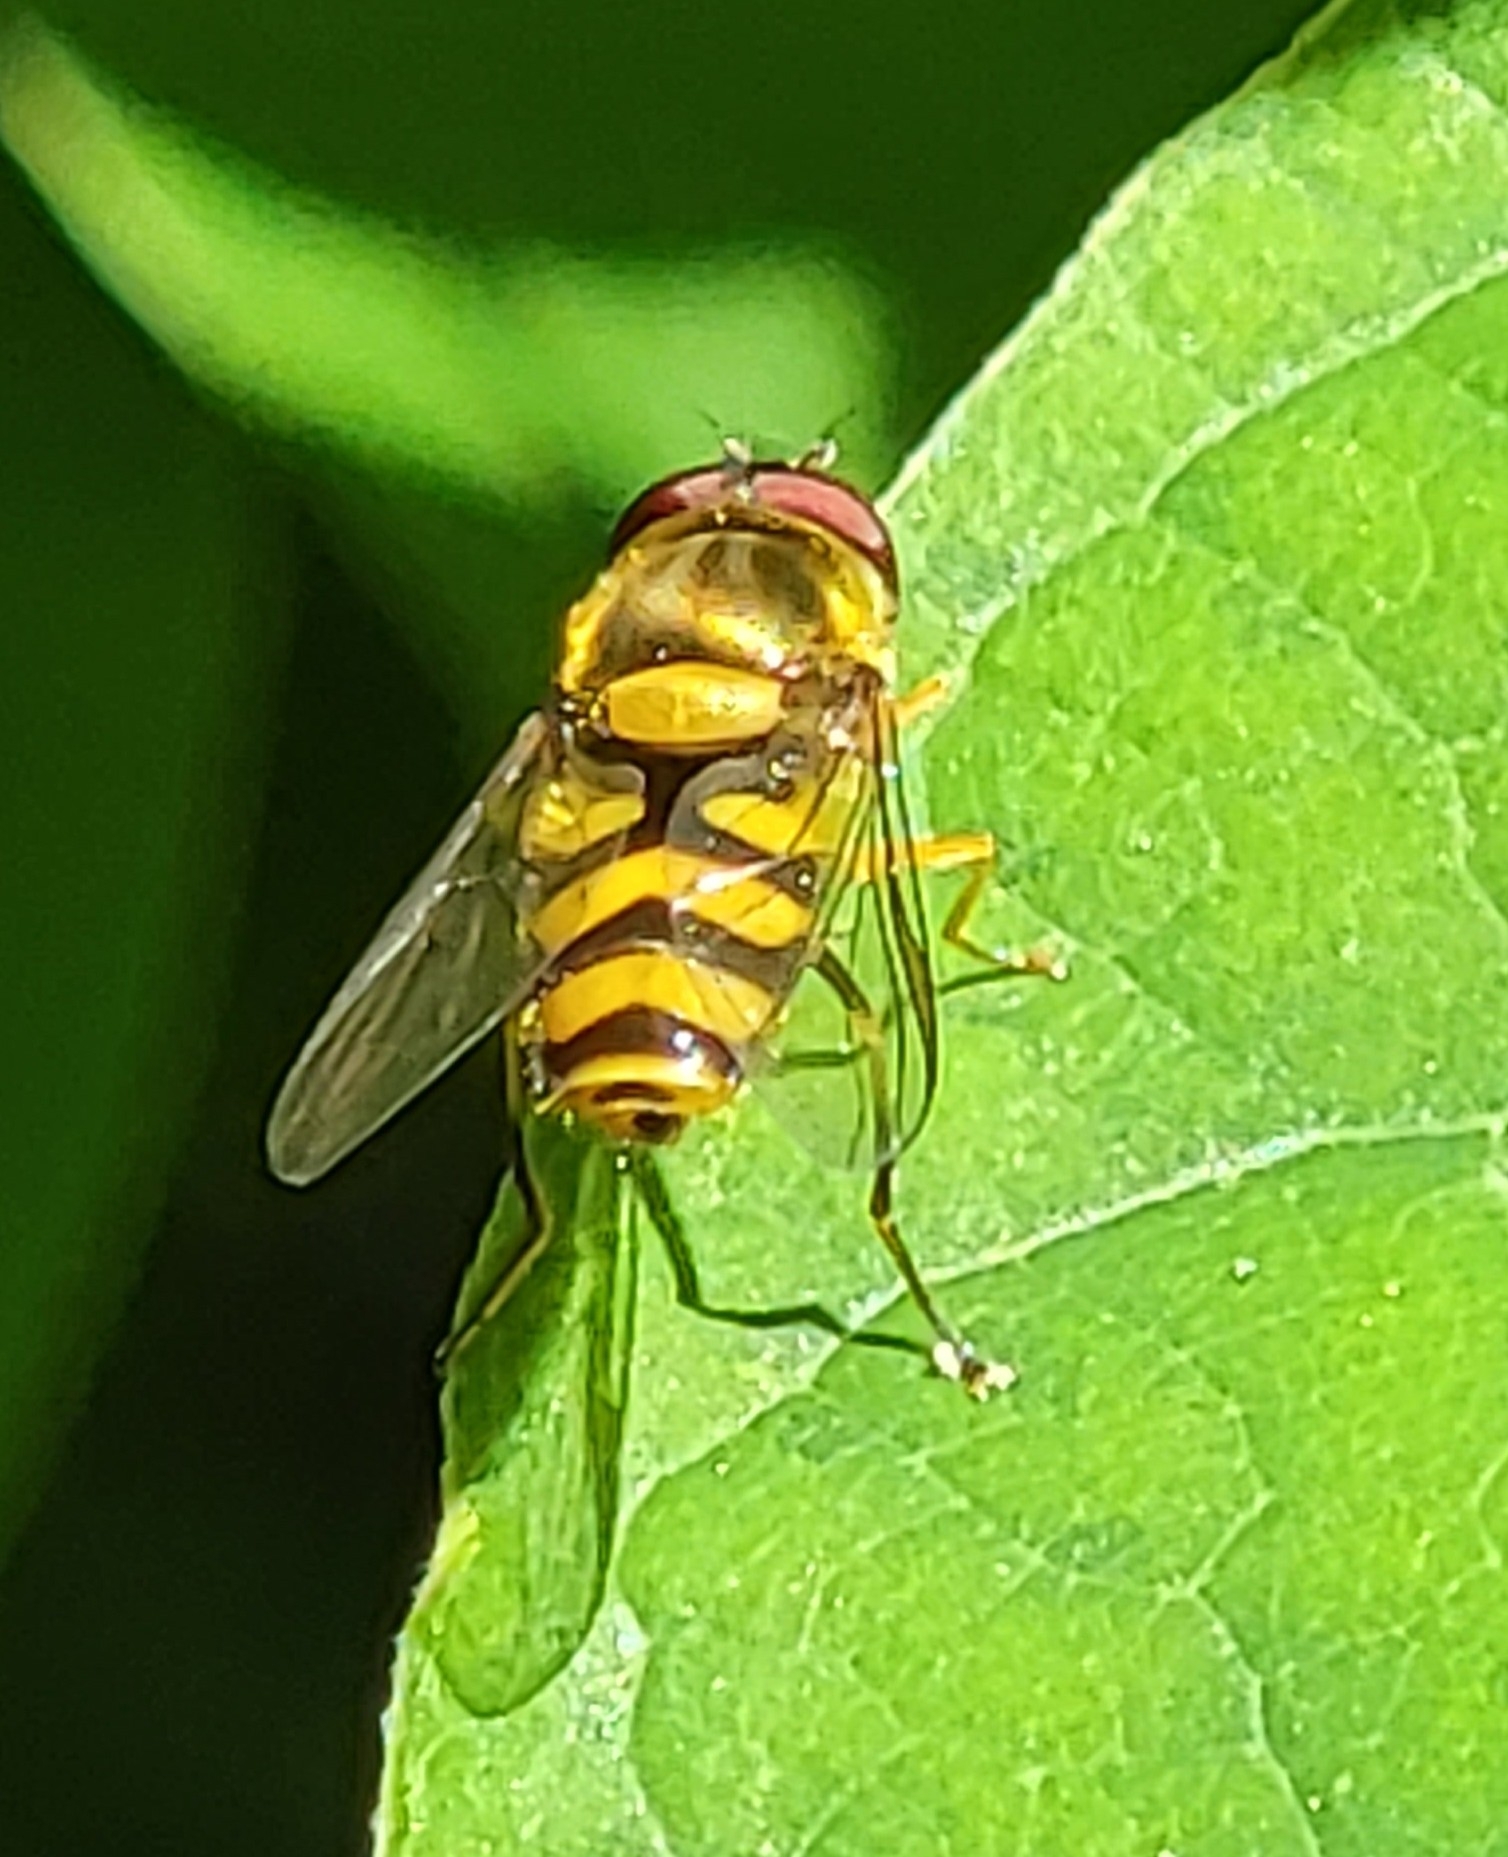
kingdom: Animalia
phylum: Arthropoda
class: Insecta
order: Diptera
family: Syrphidae
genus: Syrphus
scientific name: Syrphus
